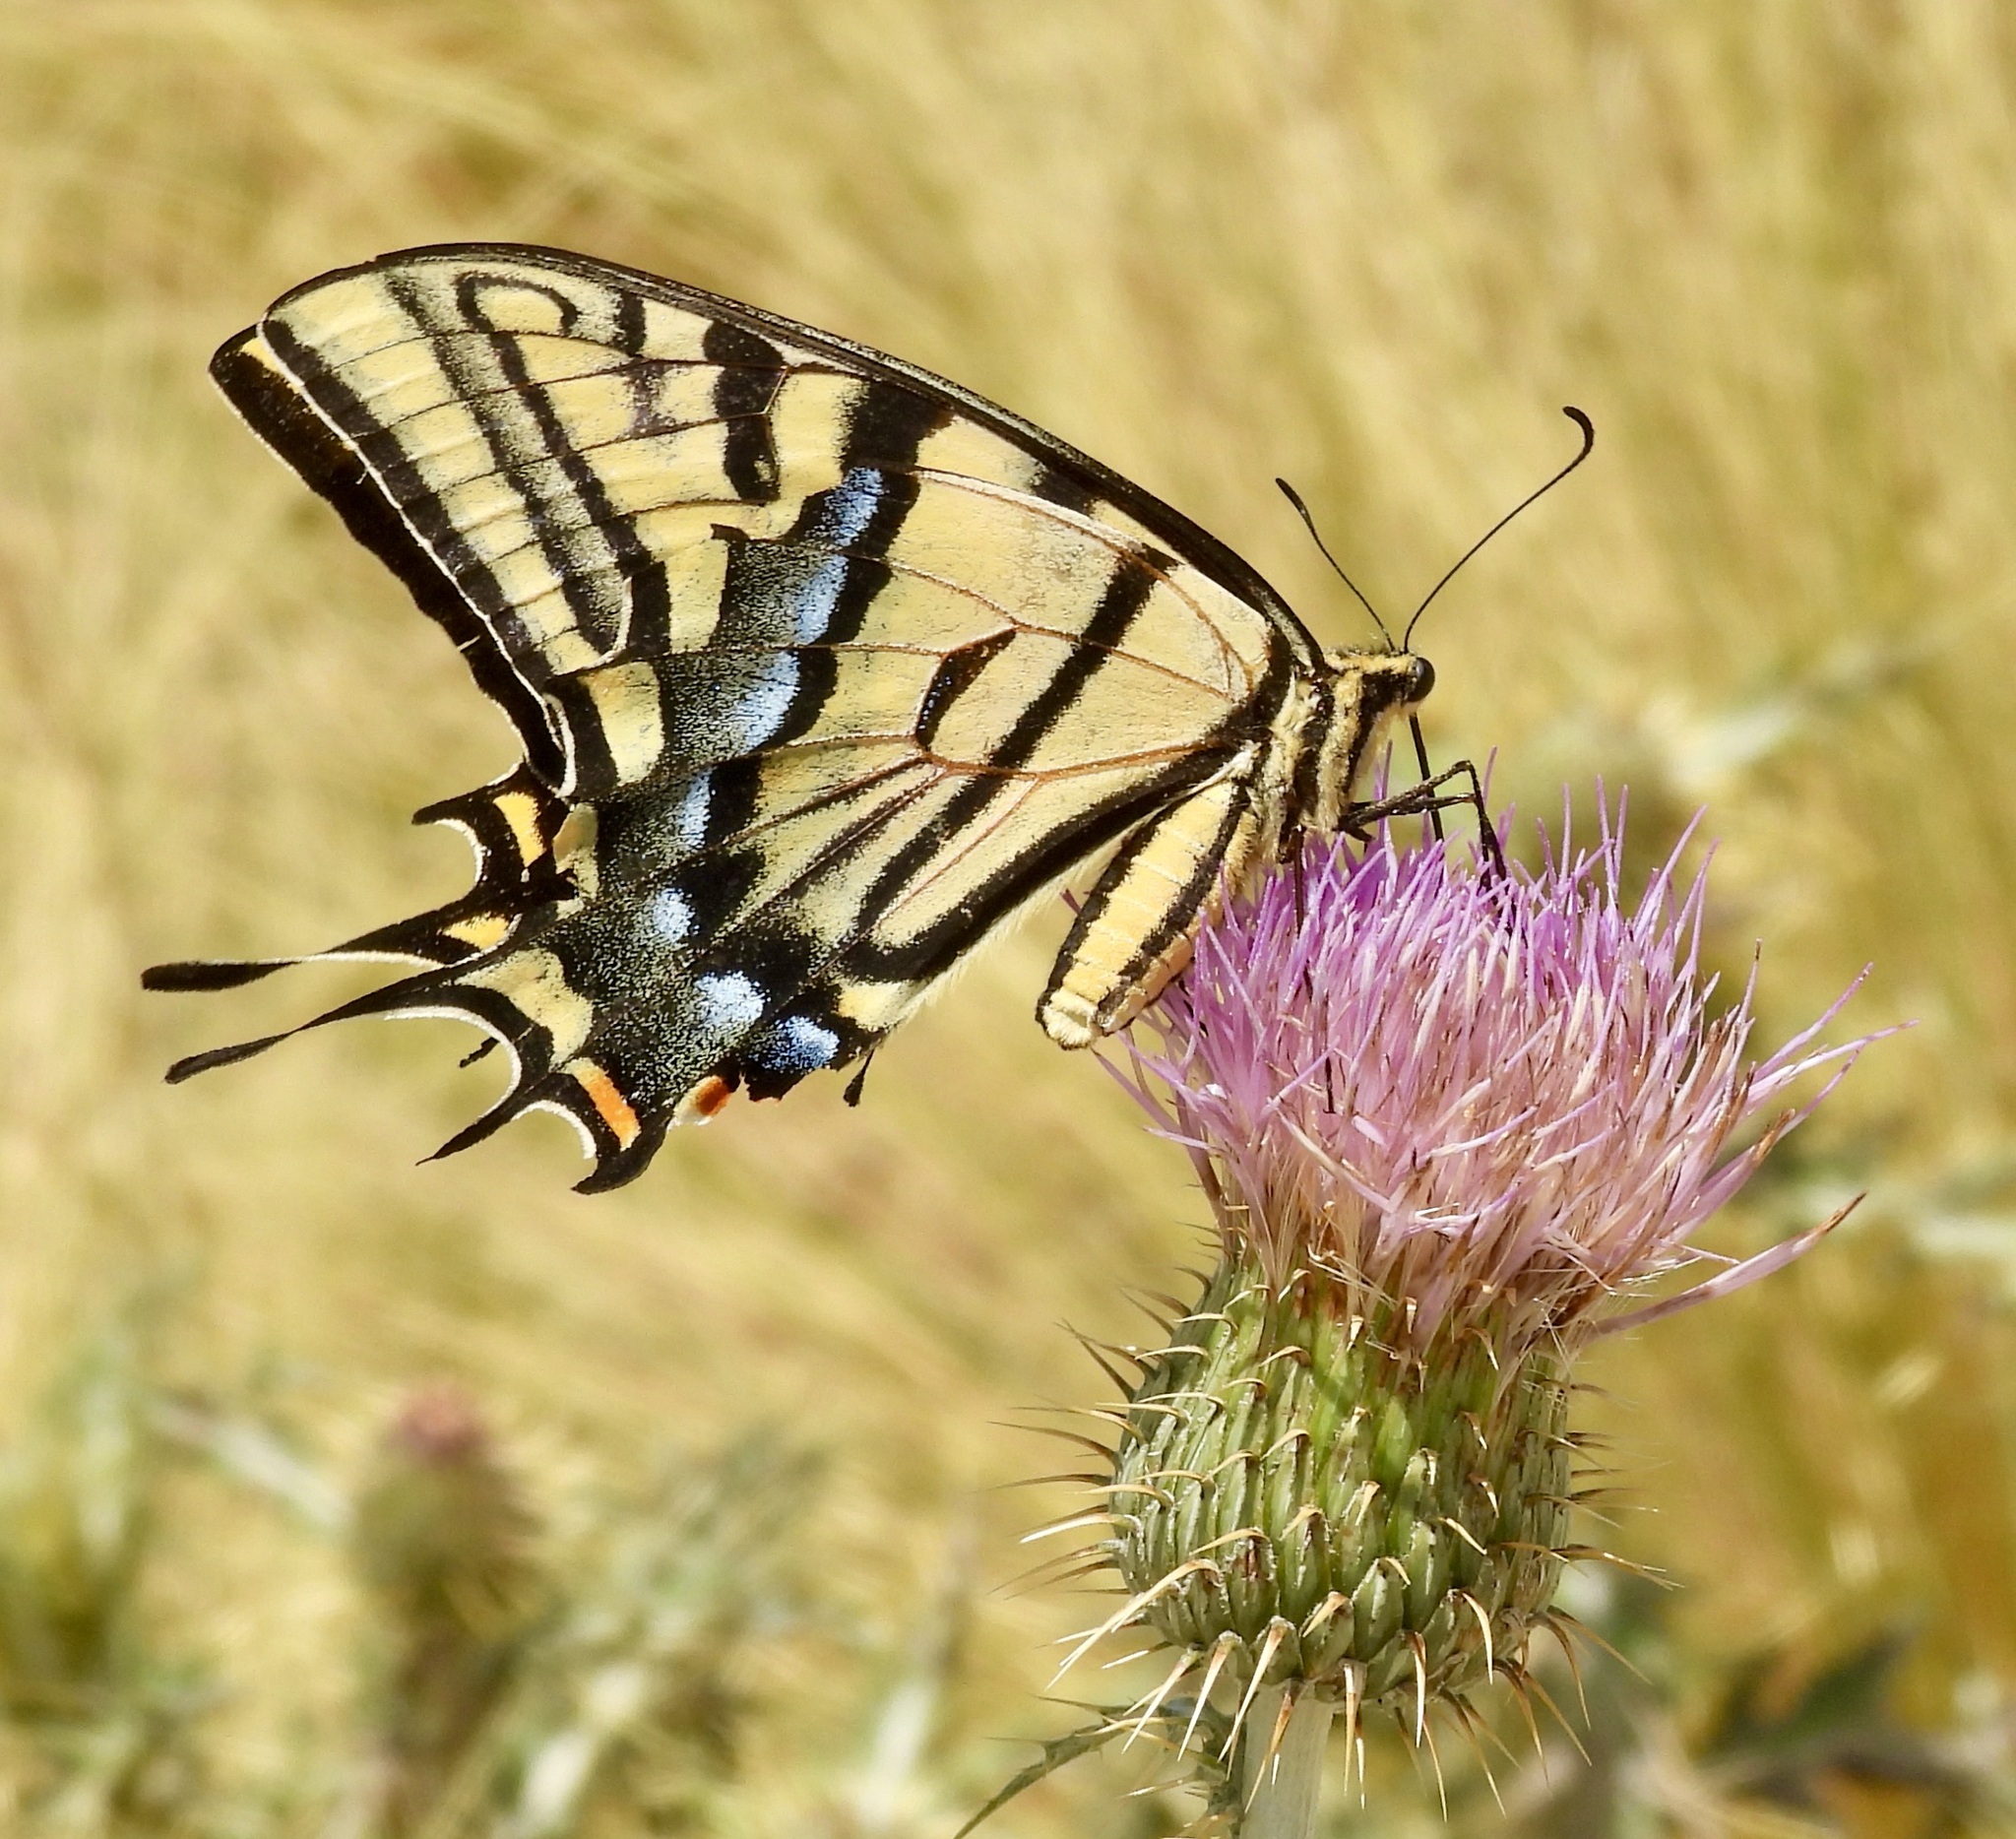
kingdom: Animalia
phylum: Arthropoda
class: Insecta
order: Lepidoptera
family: Papilionidae
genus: Papilio
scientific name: Papilio multicaudata
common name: Two-tailed tiger swallowtail
